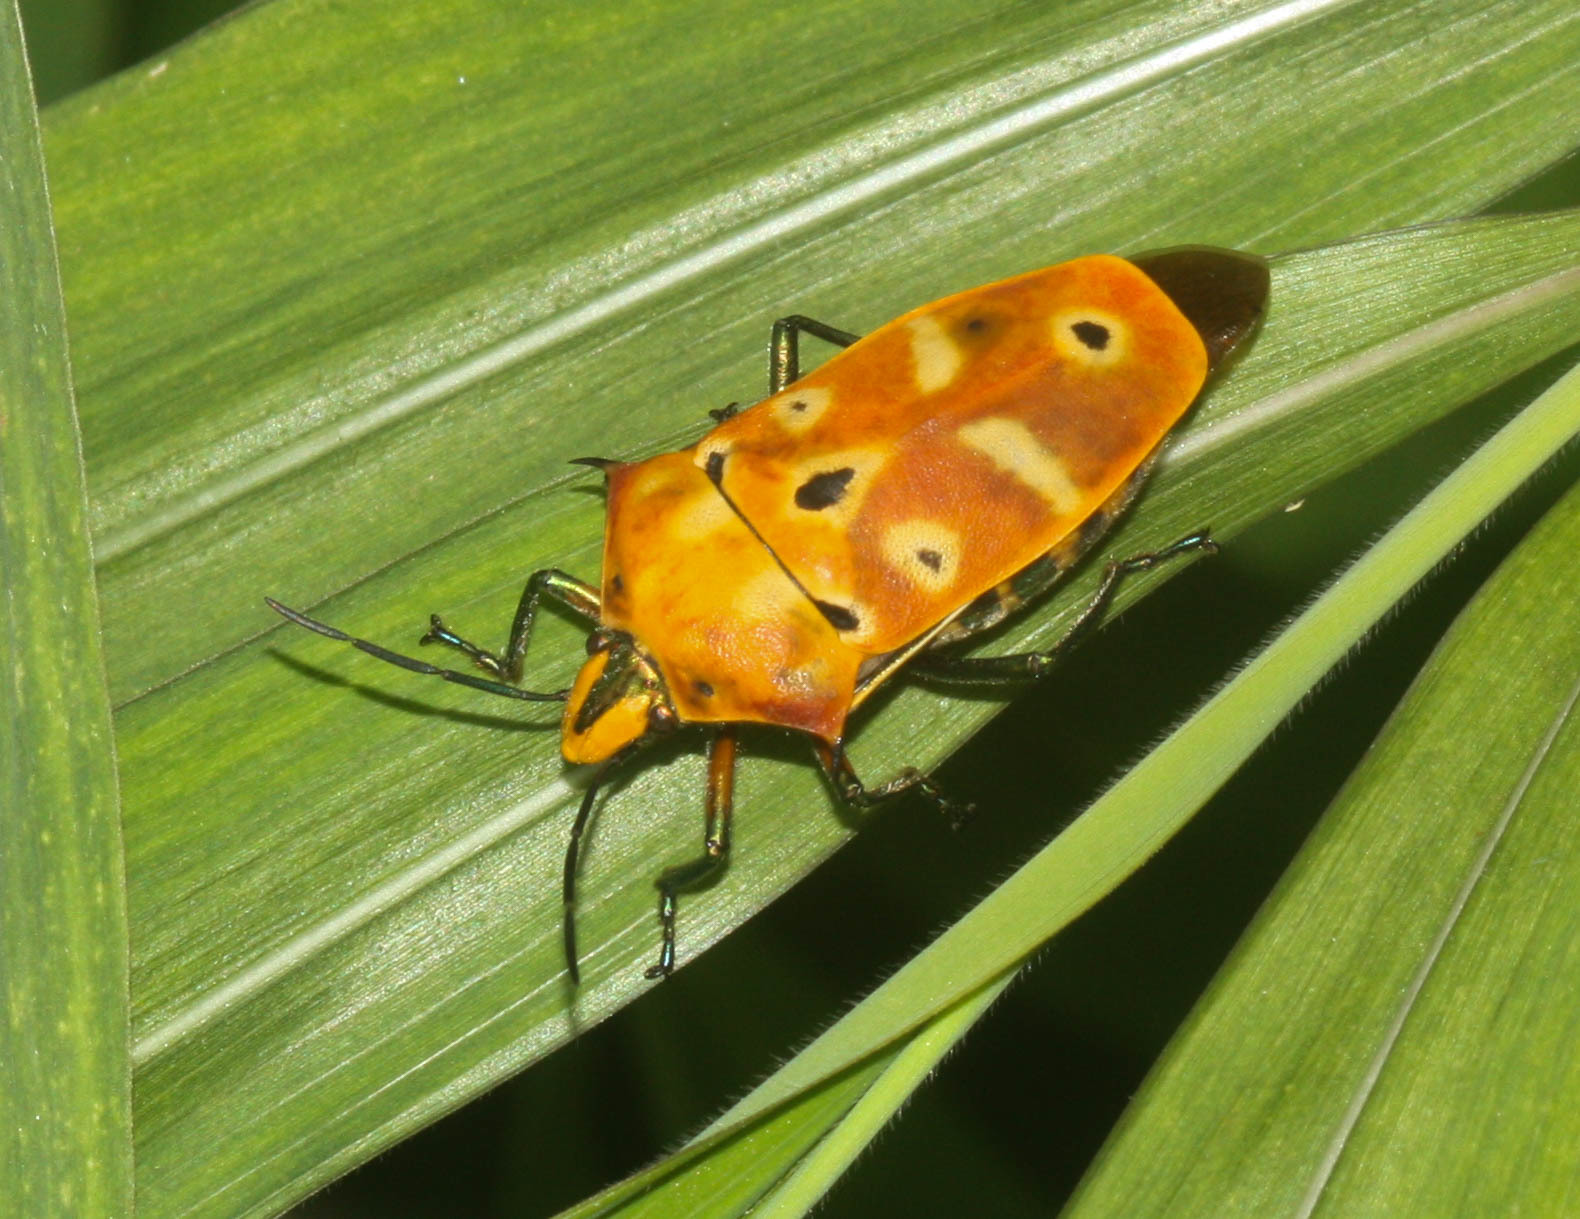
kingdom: Animalia
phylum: Arthropoda
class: Insecta
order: Hemiptera
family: Scutelleridae
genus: Cantao
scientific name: Cantao ocellatus
